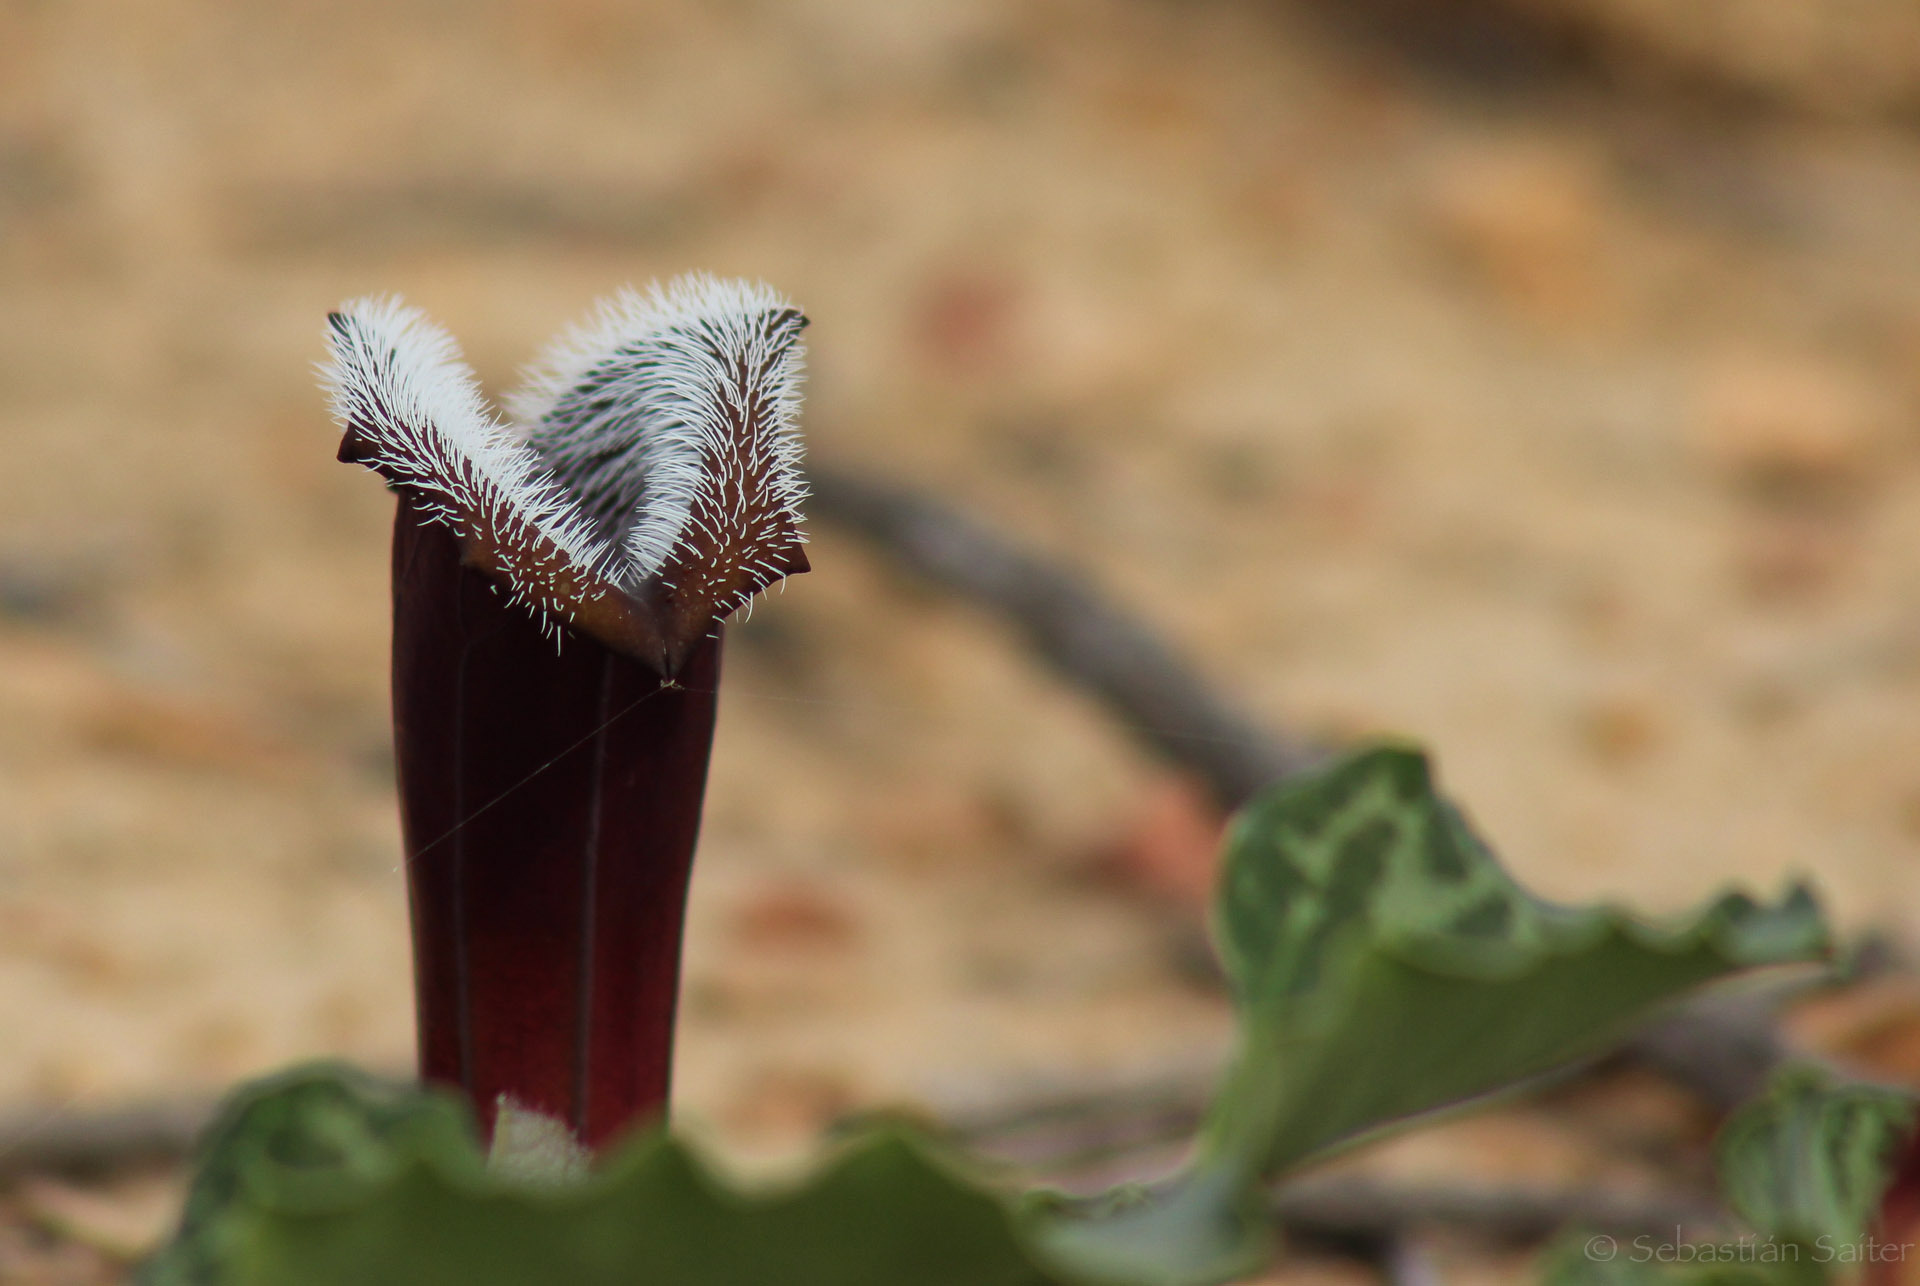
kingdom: Plantae
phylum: Tracheophyta
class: Magnoliopsida
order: Piperales
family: Aristolochiaceae
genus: Aristolochia
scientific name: Aristolochia chilensis
